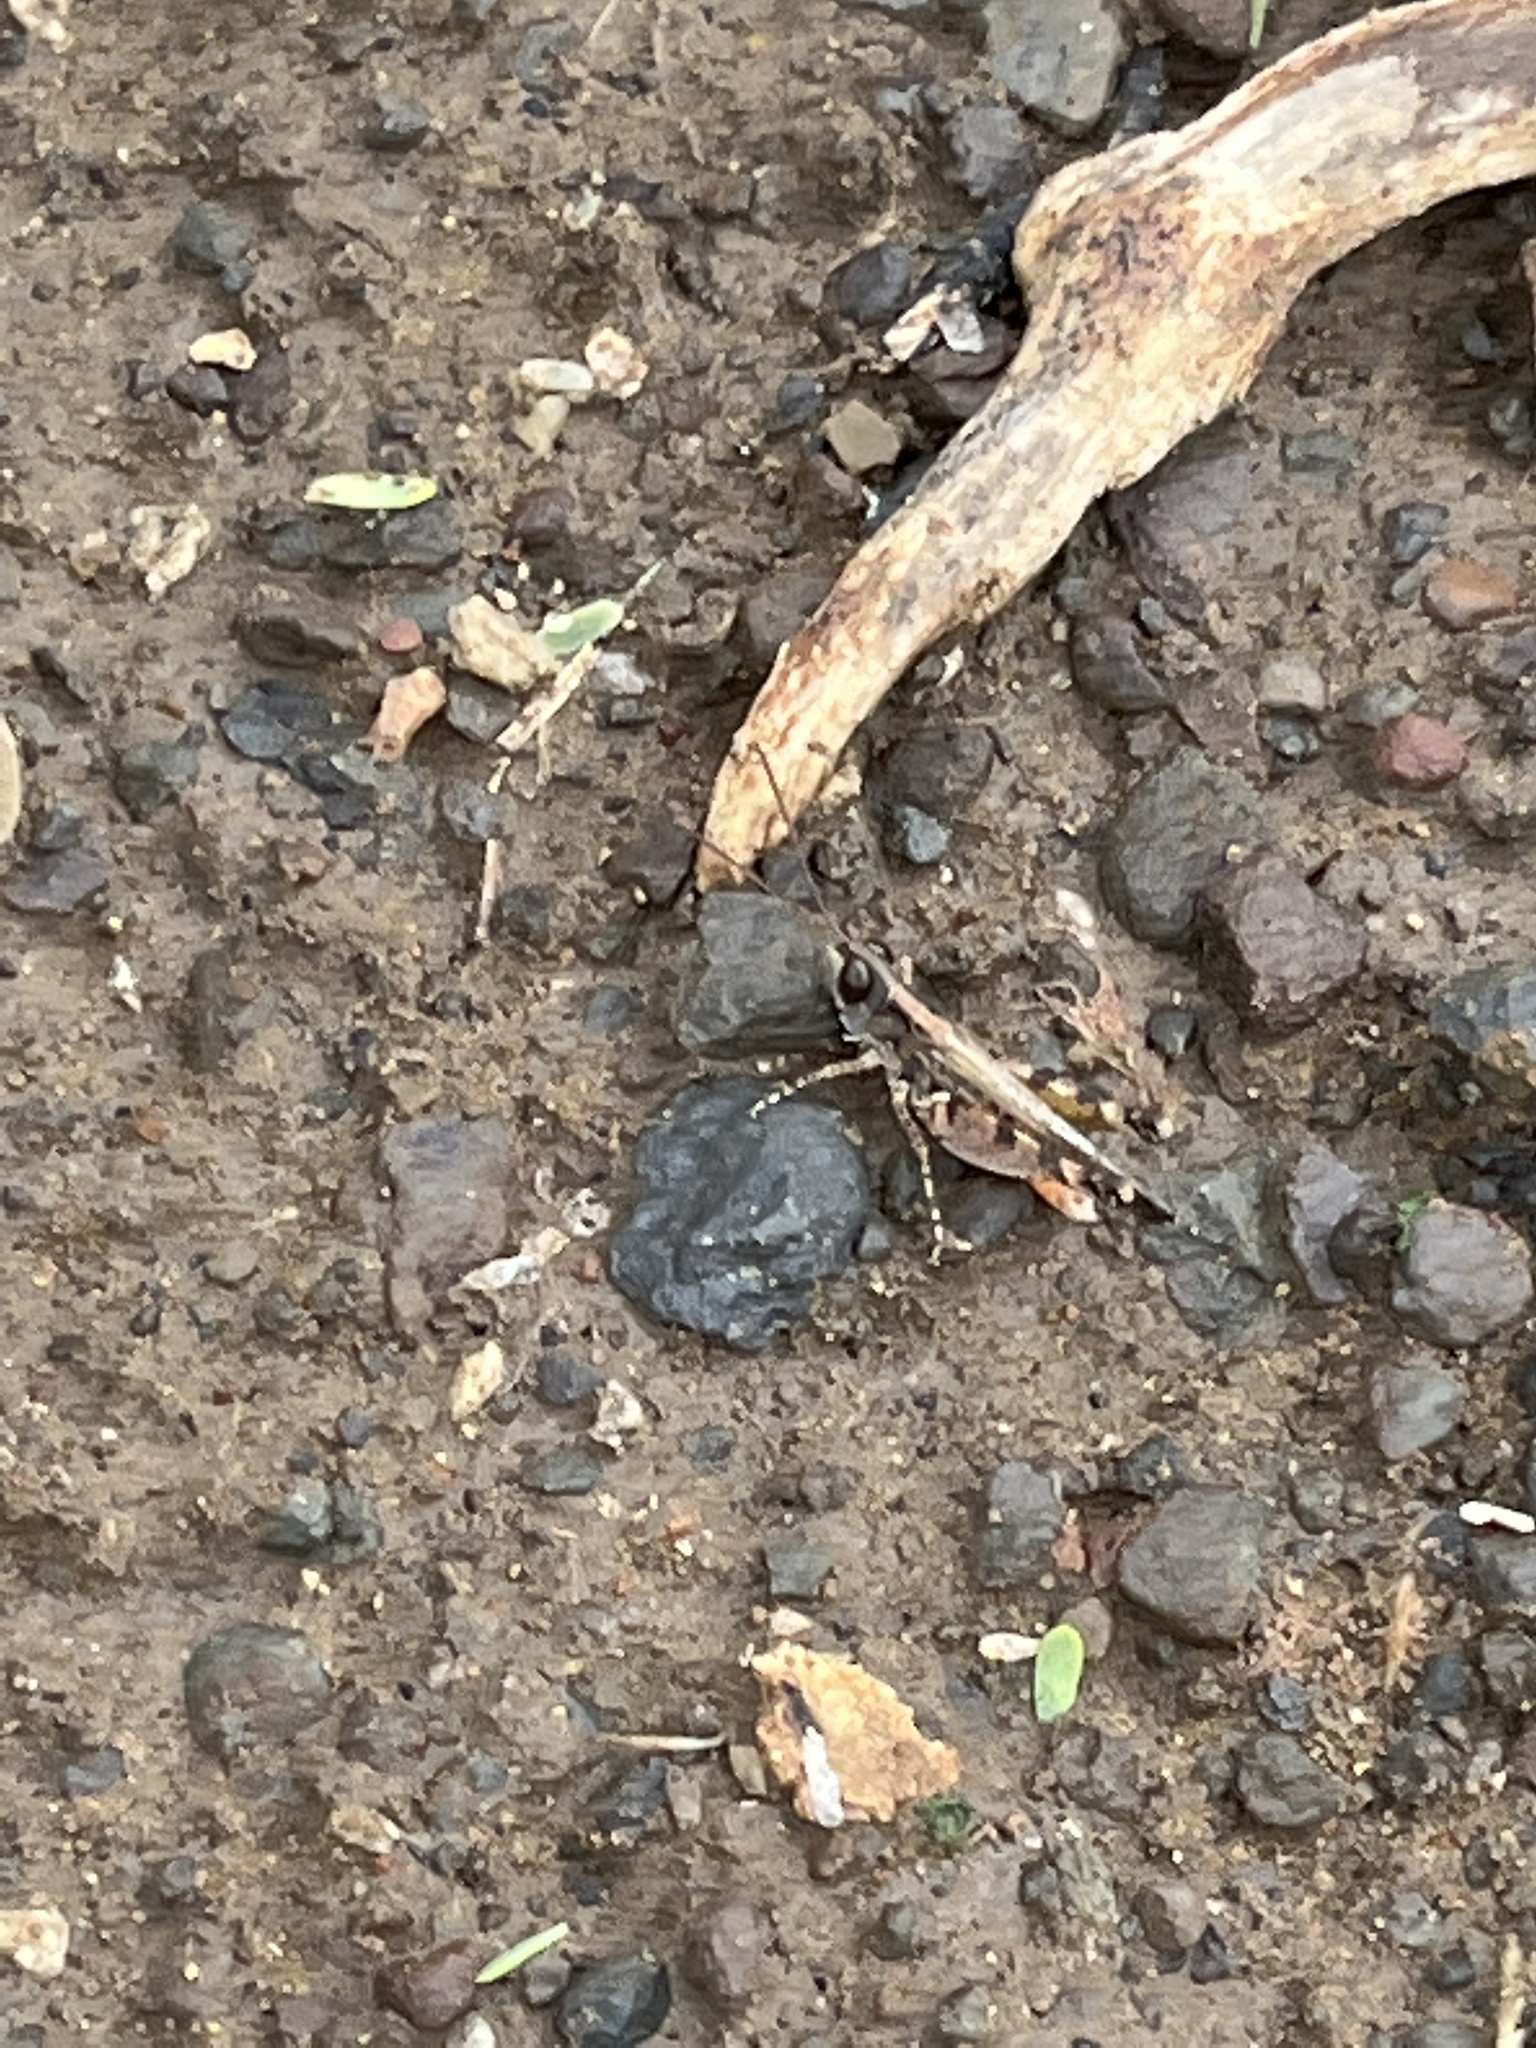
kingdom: Animalia
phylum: Arthropoda
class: Insecta
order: Orthoptera
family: Acrididae
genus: Jasomenia
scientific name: Jasomenia sansibara
